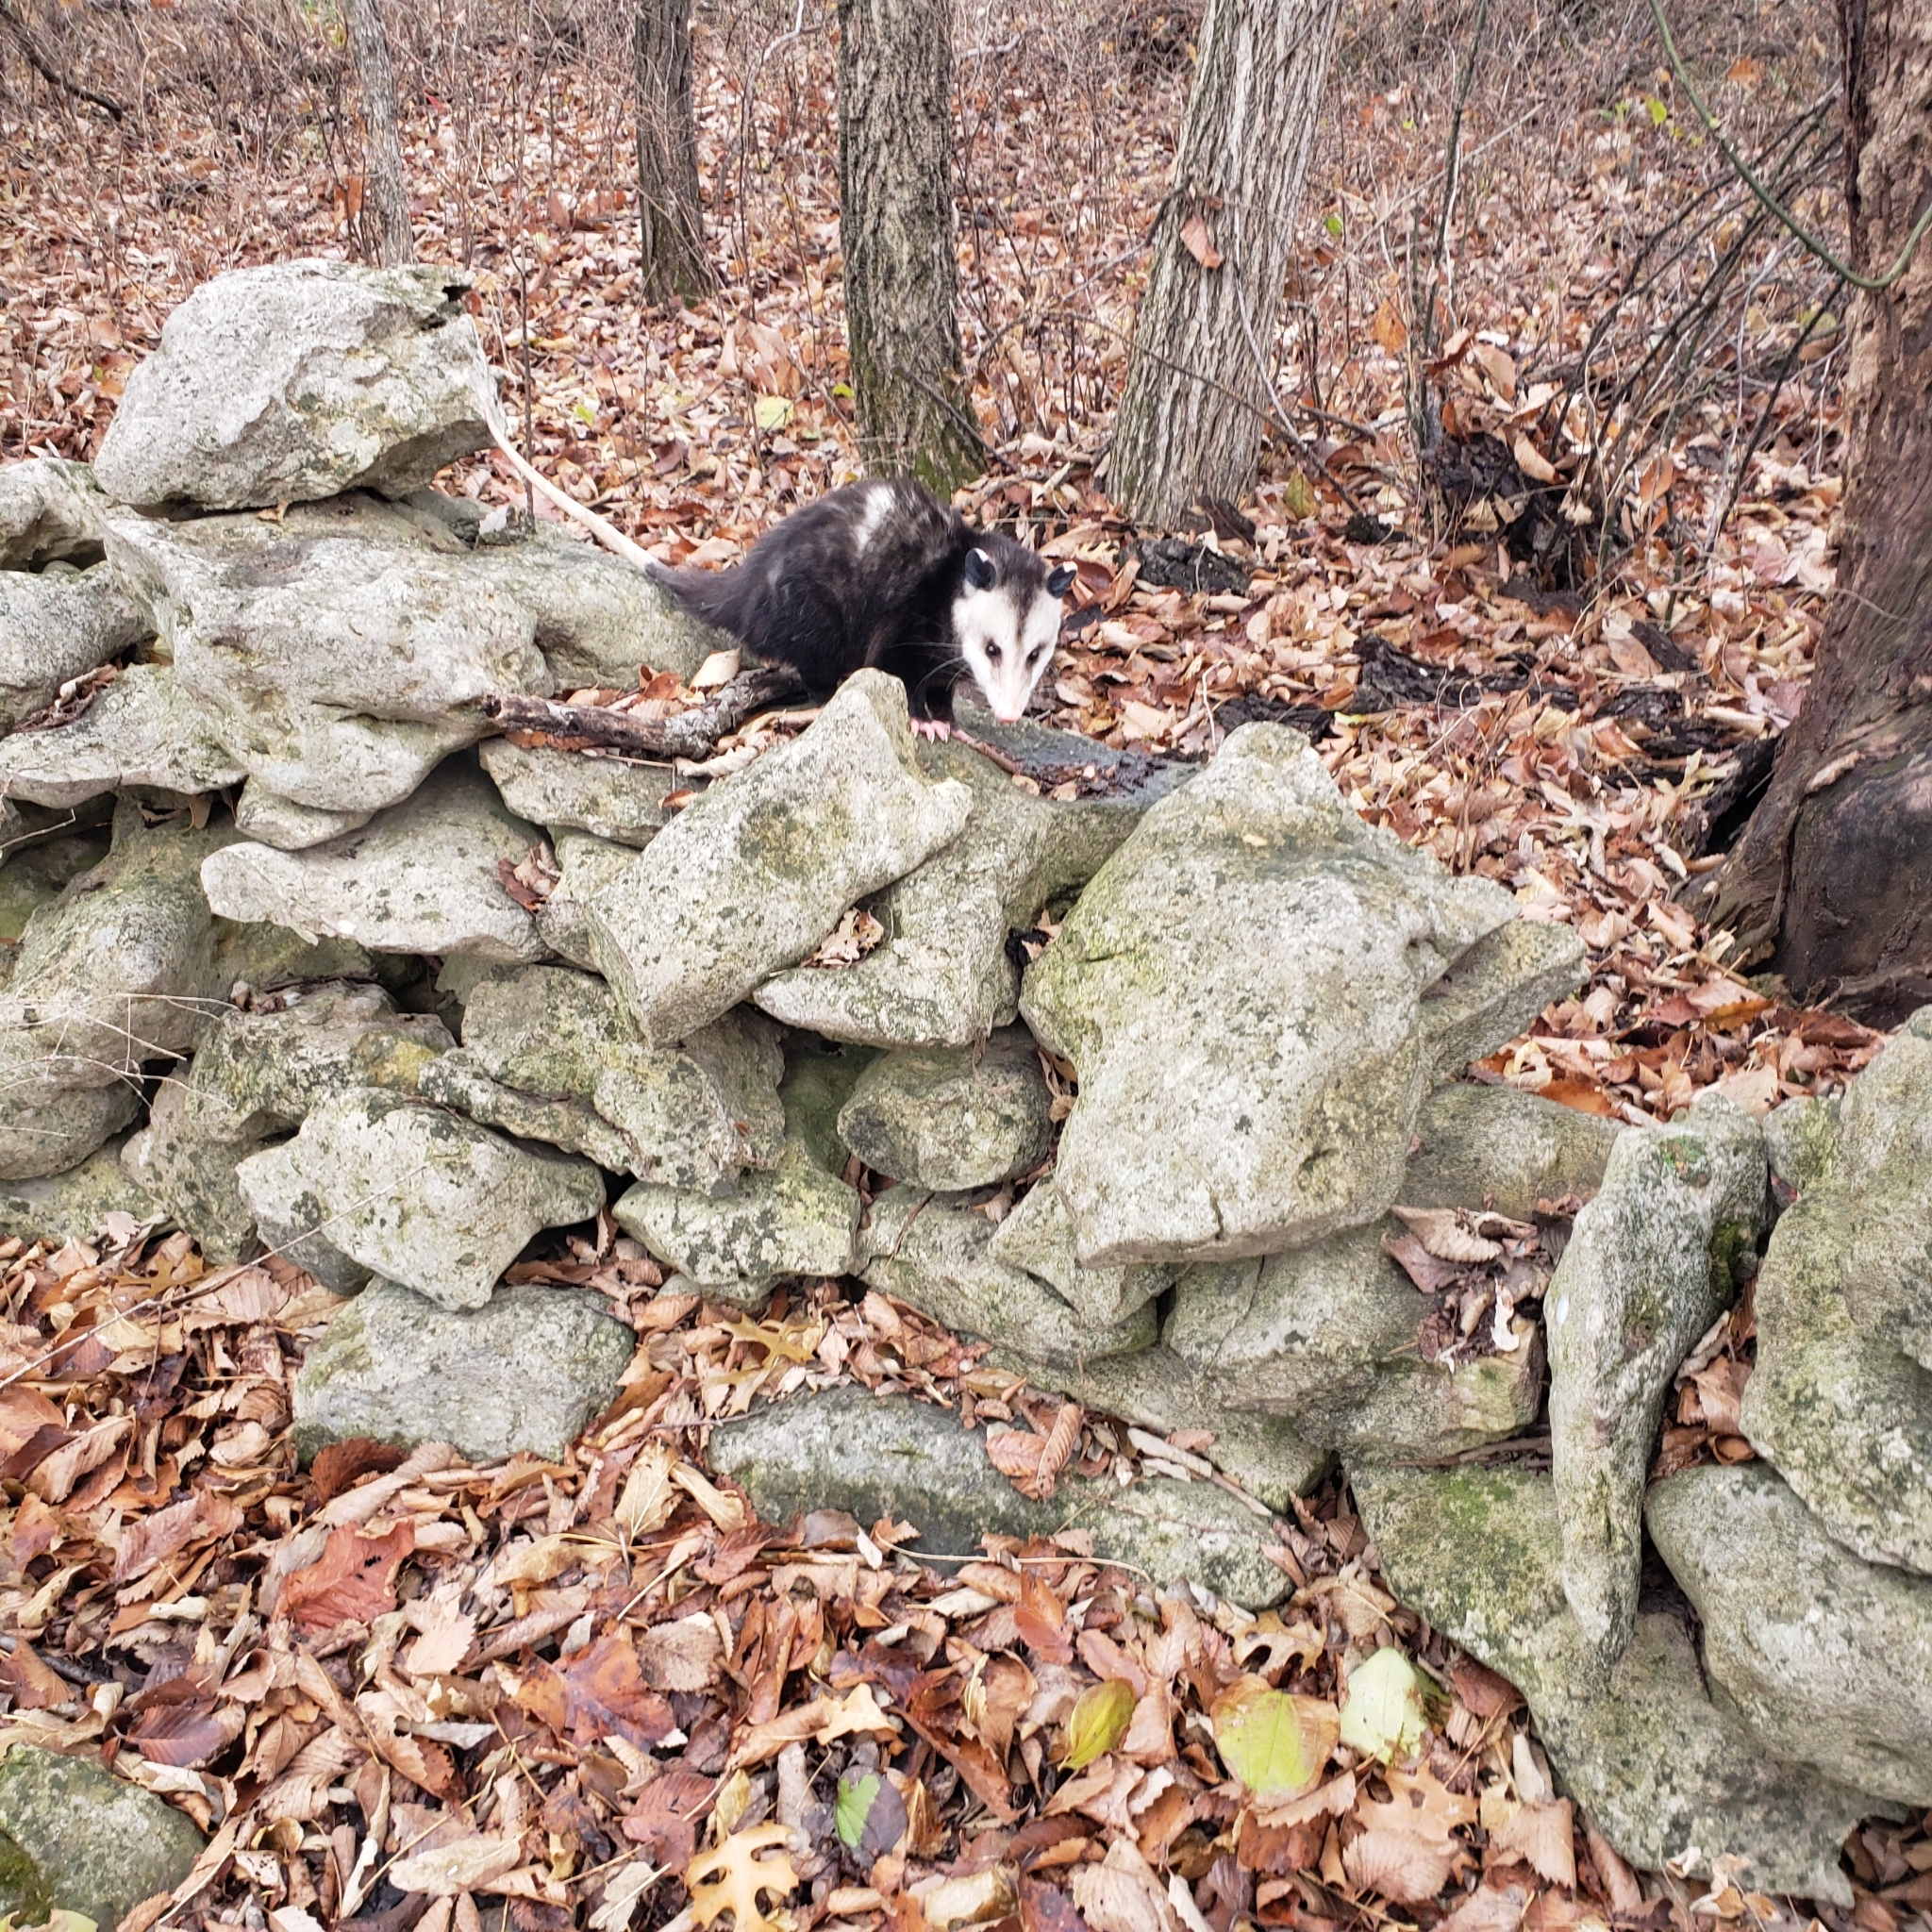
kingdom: Animalia
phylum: Chordata
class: Mammalia
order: Didelphimorphia
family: Didelphidae
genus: Didelphis
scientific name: Didelphis virginiana
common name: Virginia opossum
